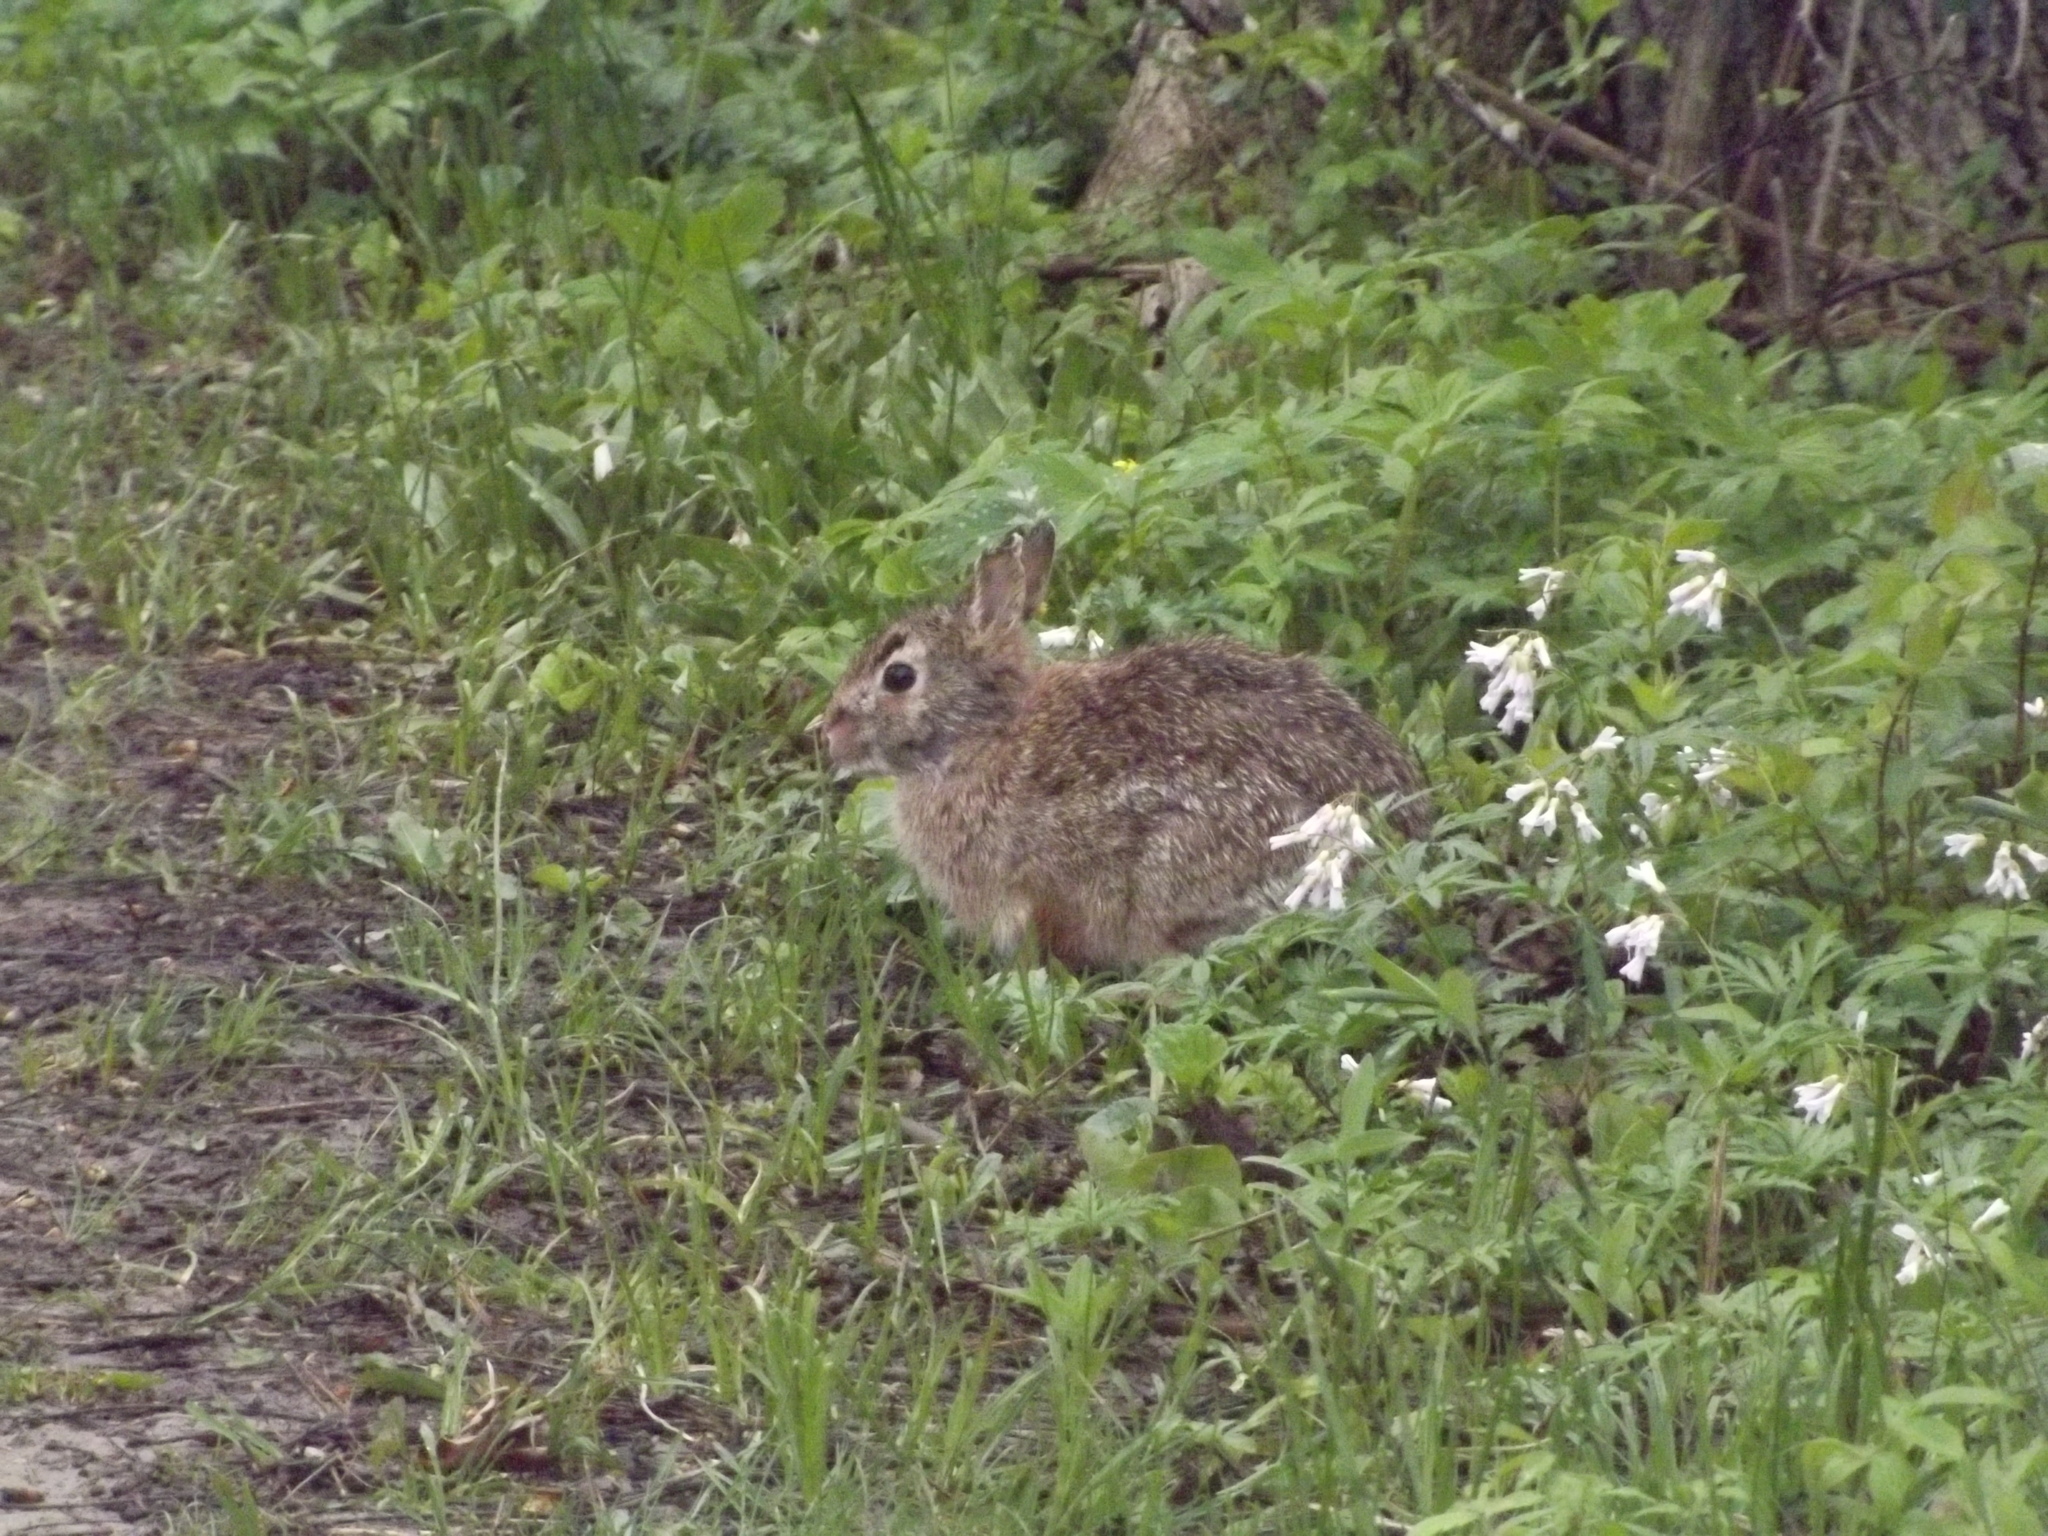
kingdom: Animalia
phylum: Chordata
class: Mammalia
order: Lagomorpha
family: Leporidae
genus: Sylvilagus
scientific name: Sylvilagus floridanus
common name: Eastern cottontail
